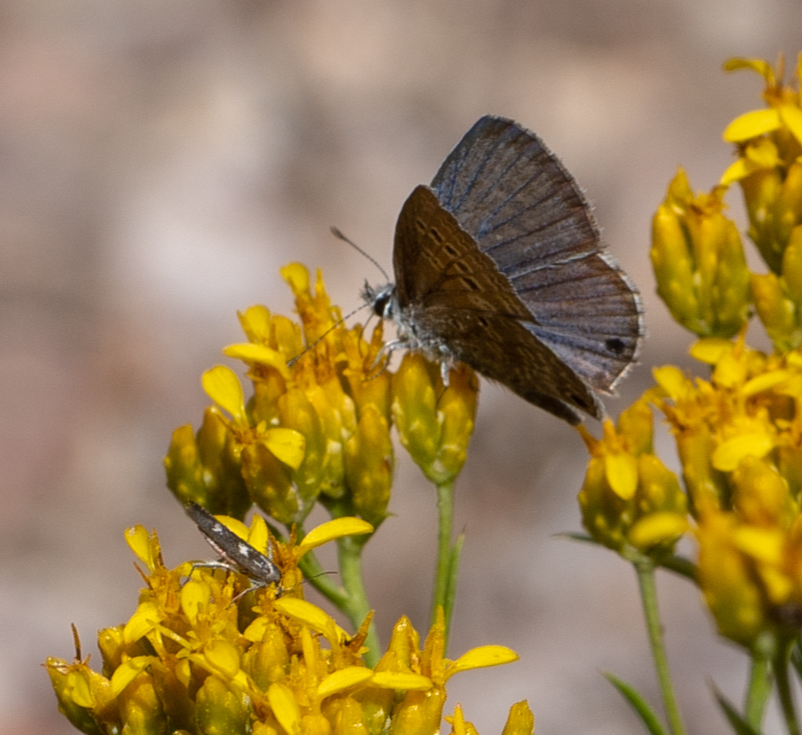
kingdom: Animalia
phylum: Arthropoda
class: Insecta
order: Lepidoptera
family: Lycaenidae
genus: Echinargus
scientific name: Echinargus isola
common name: Reakirt's blue
